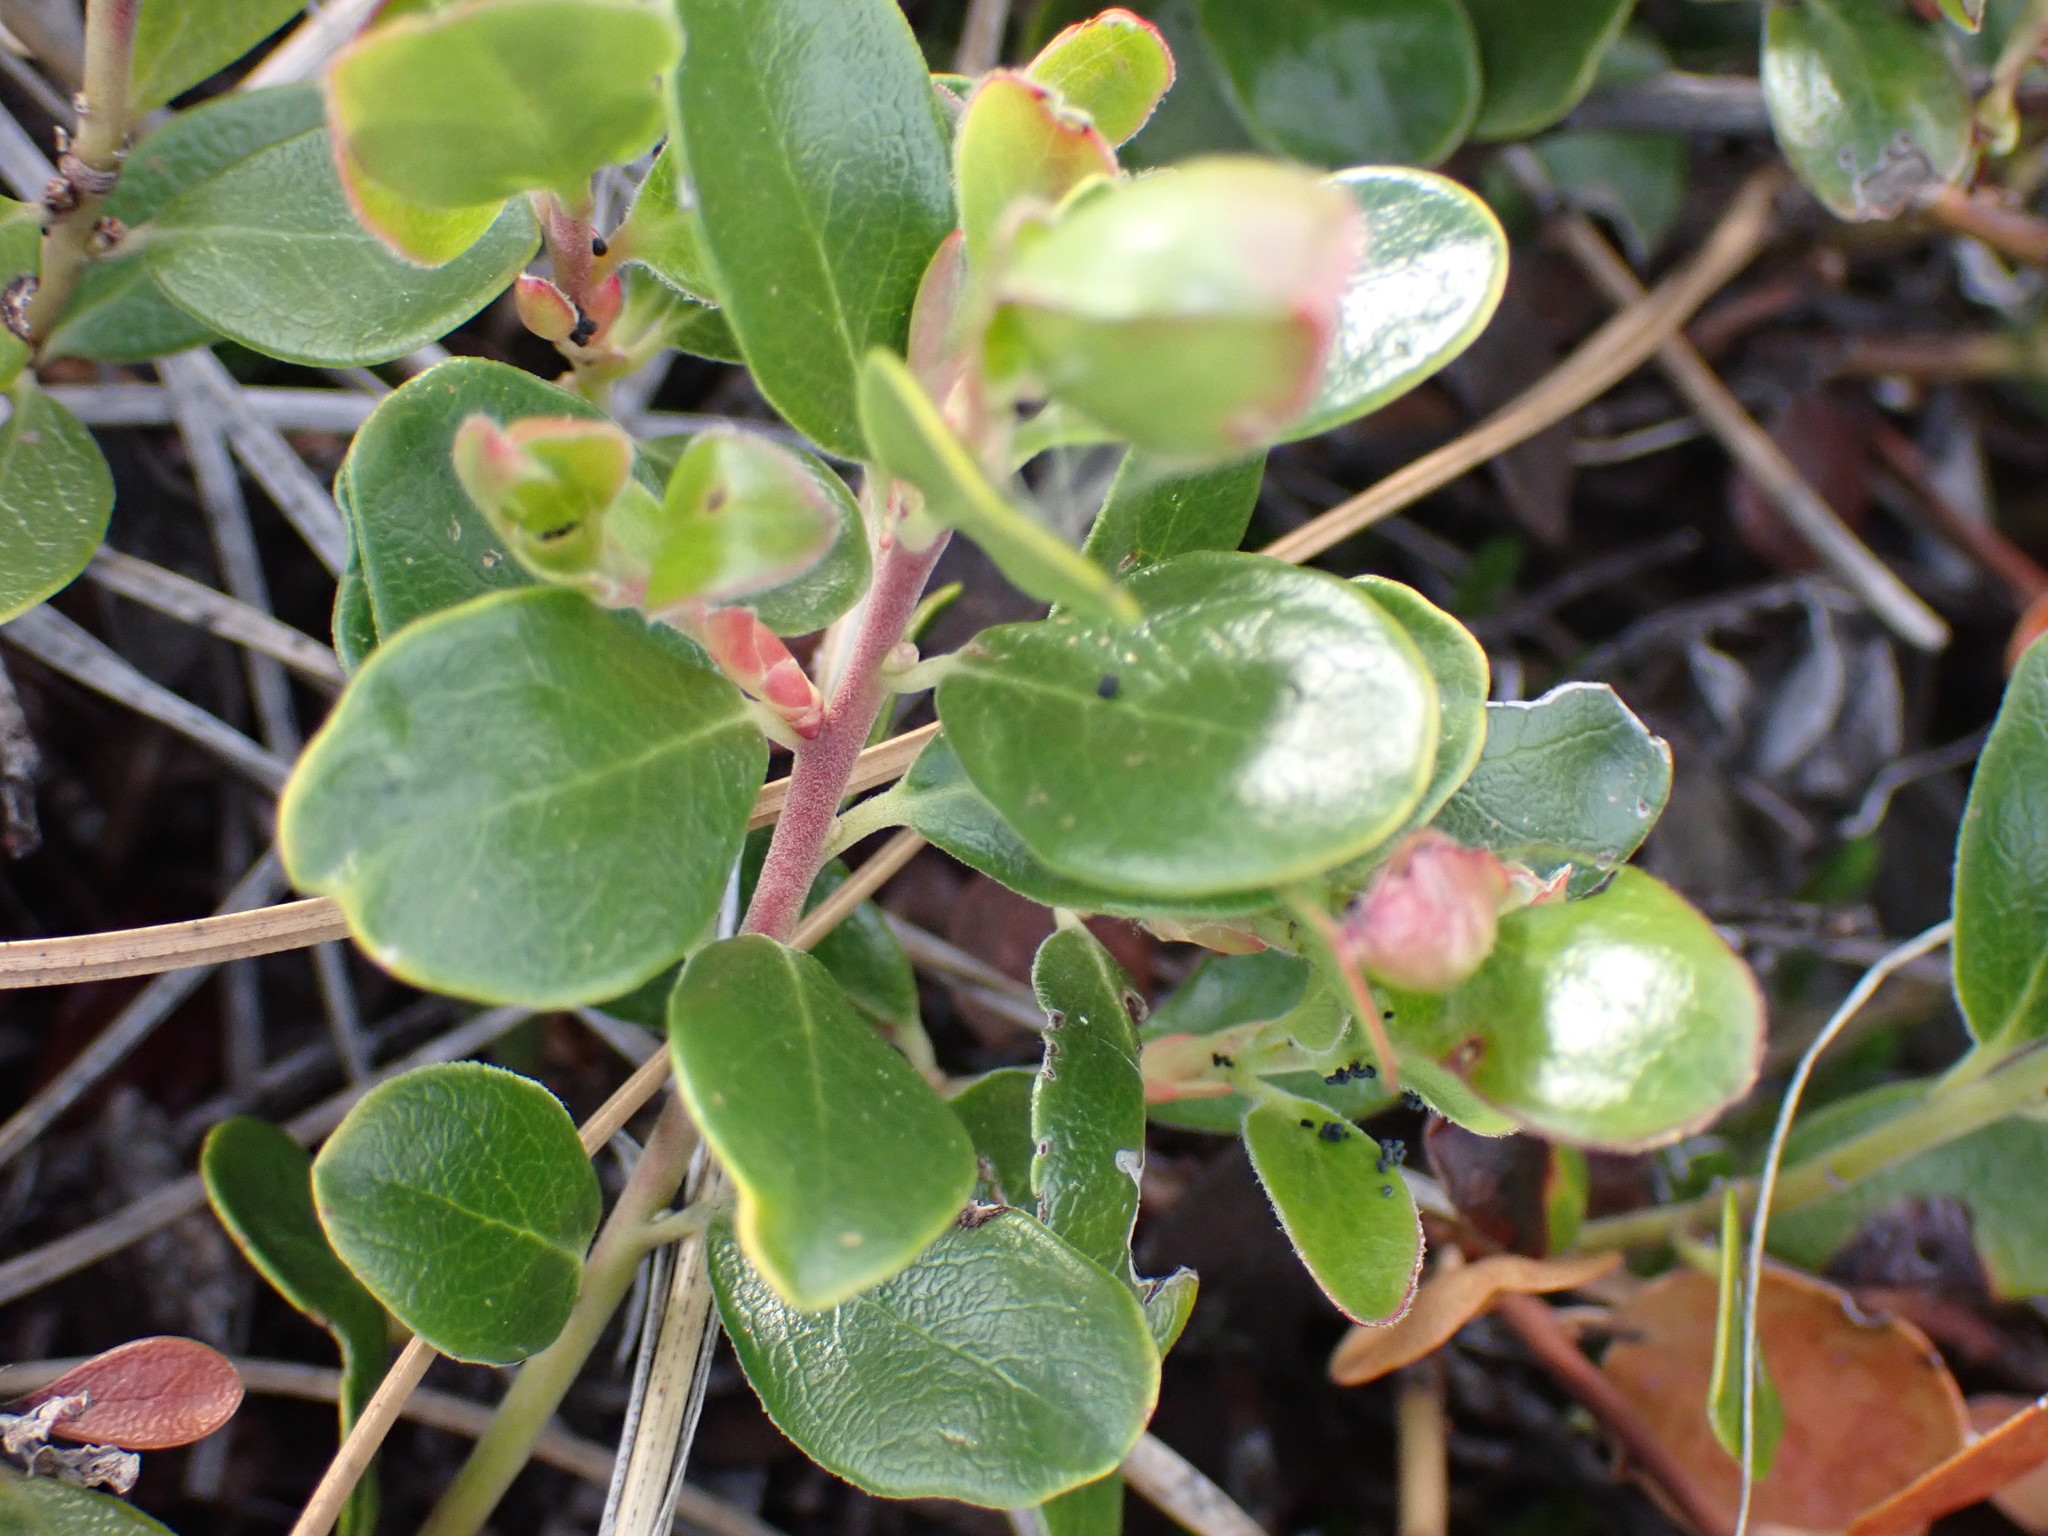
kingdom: Plantae
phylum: Tracheophyta
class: Magnoliopsida
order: Ericales
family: Ericaceae
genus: Arctostaphylos
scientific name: Arctostaphylos uva-ursi
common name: Bearberry
